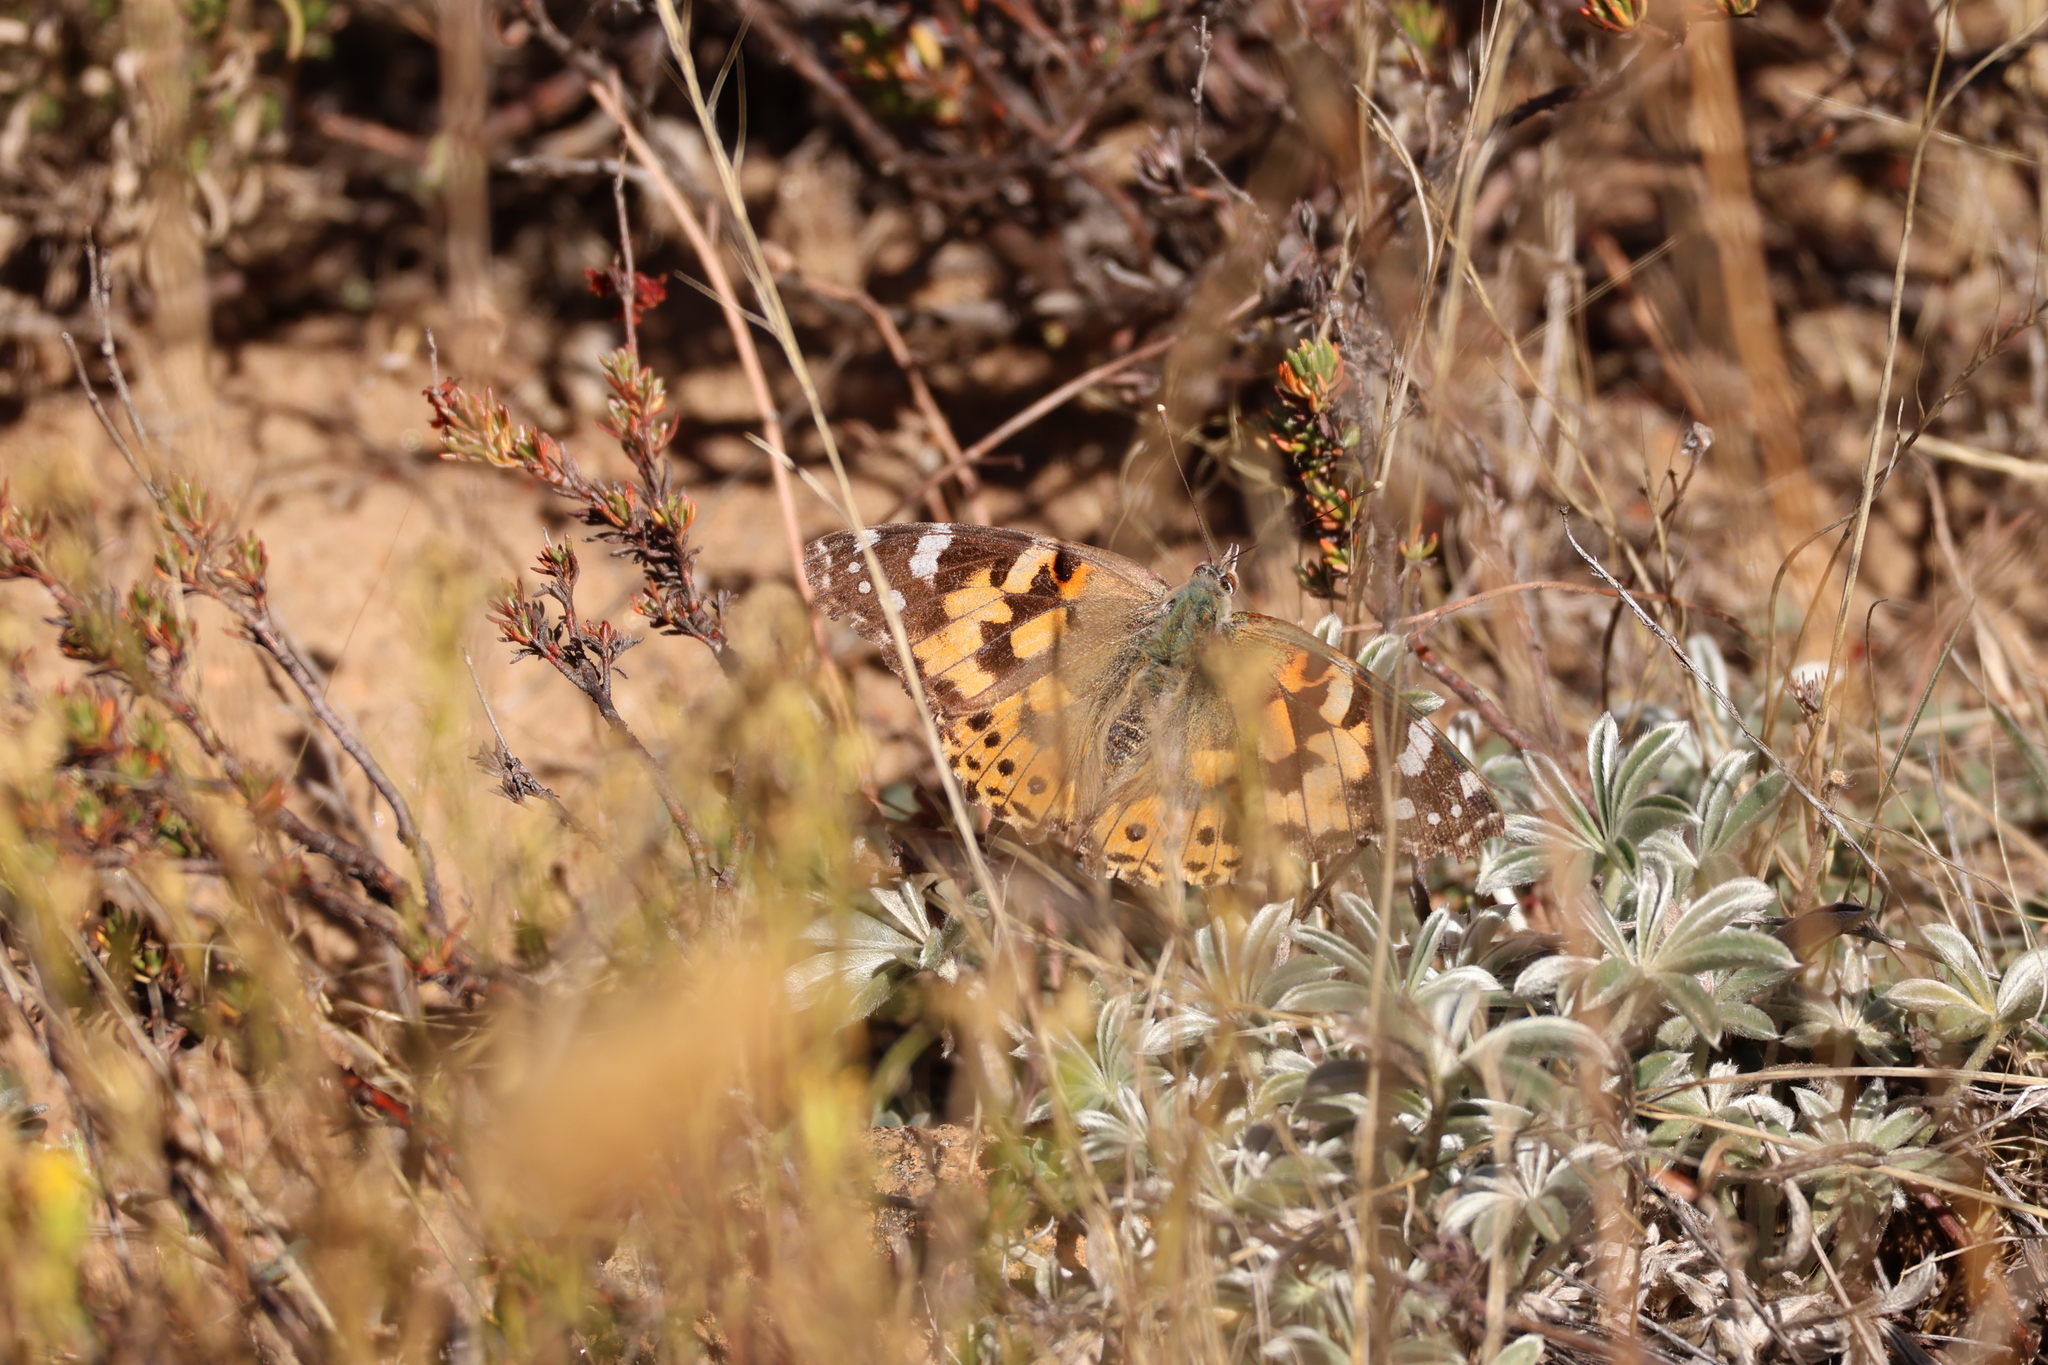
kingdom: Animalia
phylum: Arthropoda
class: Insecta
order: Lepidoptera
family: Nymphalidae
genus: Vanessa
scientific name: Vanessa cardui
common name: Painted lady
